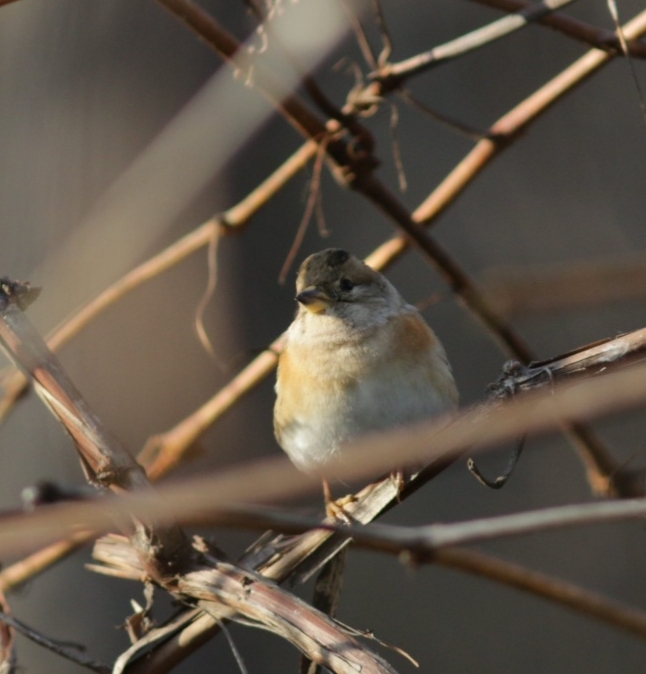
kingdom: Animalia
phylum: Chordata
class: Aves
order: Passeriformes
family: Fringillidae
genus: Fringilla
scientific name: Fringilla montifringilla
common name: Brambling
